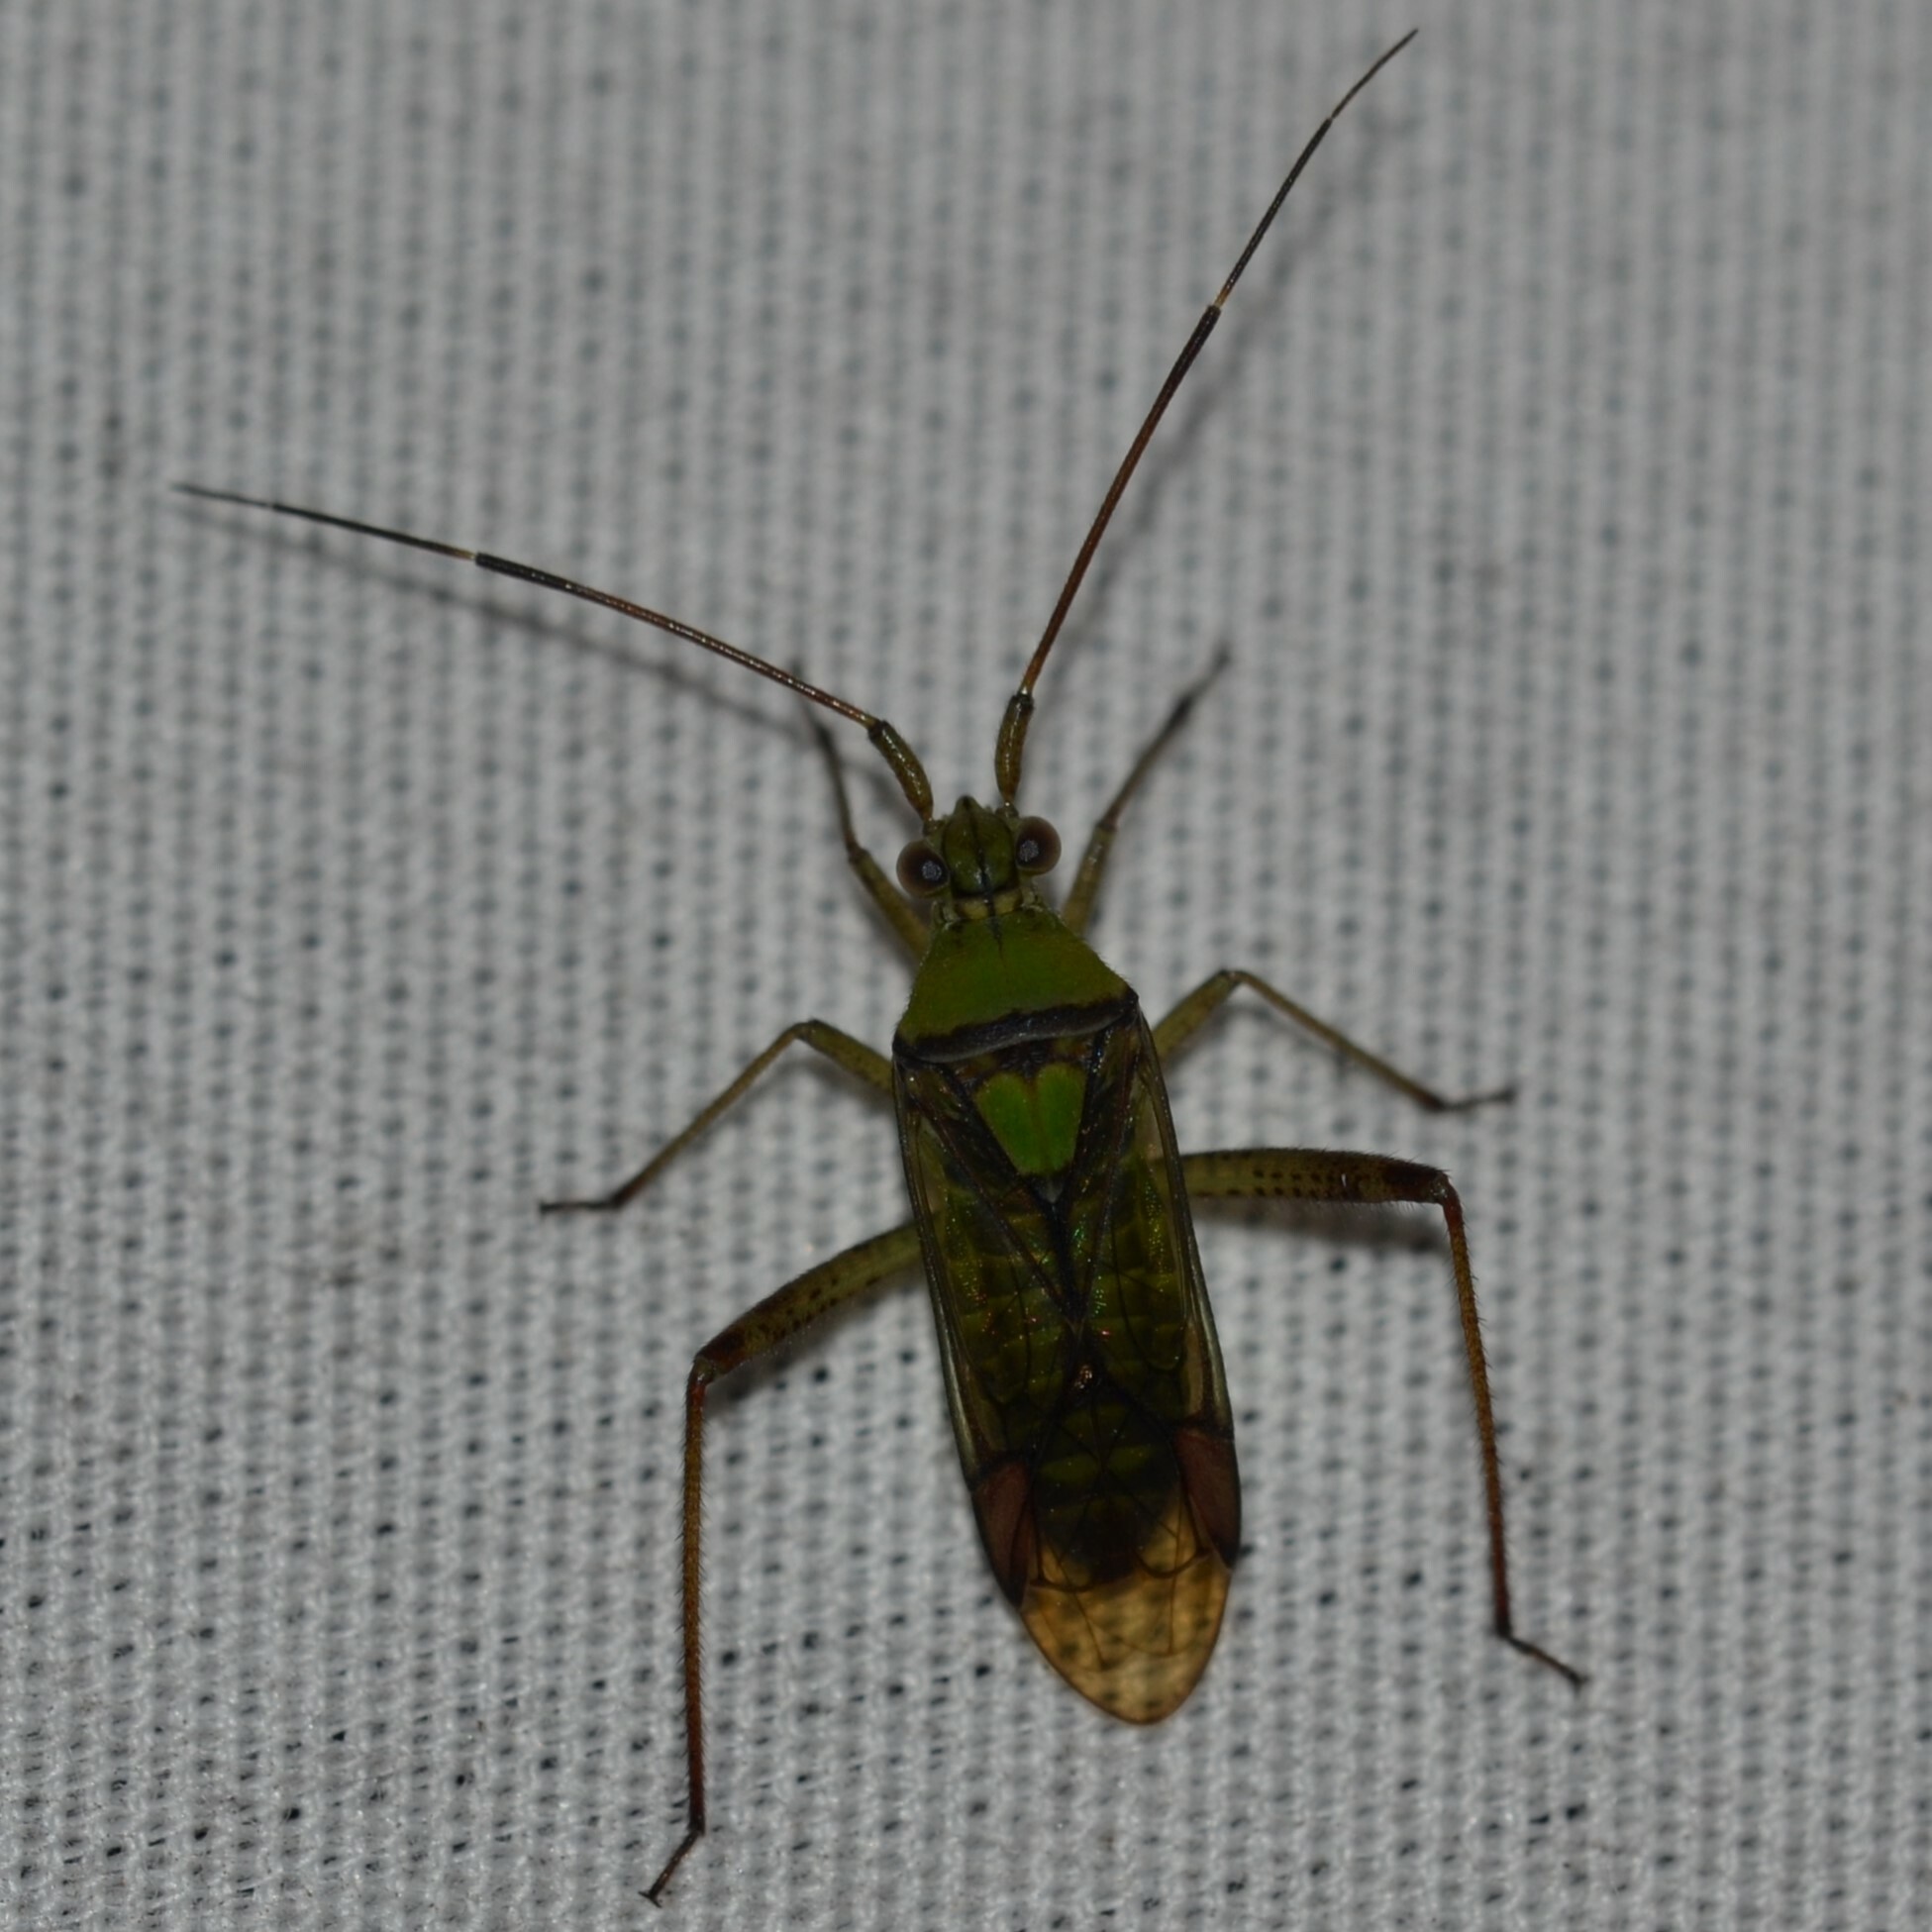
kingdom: Animalia
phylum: Arthropoda
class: Insecta
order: Hemiptera
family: Miridae
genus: Hyalopeplus
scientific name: Hyalopeplus pellucidus
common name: Plant bug
